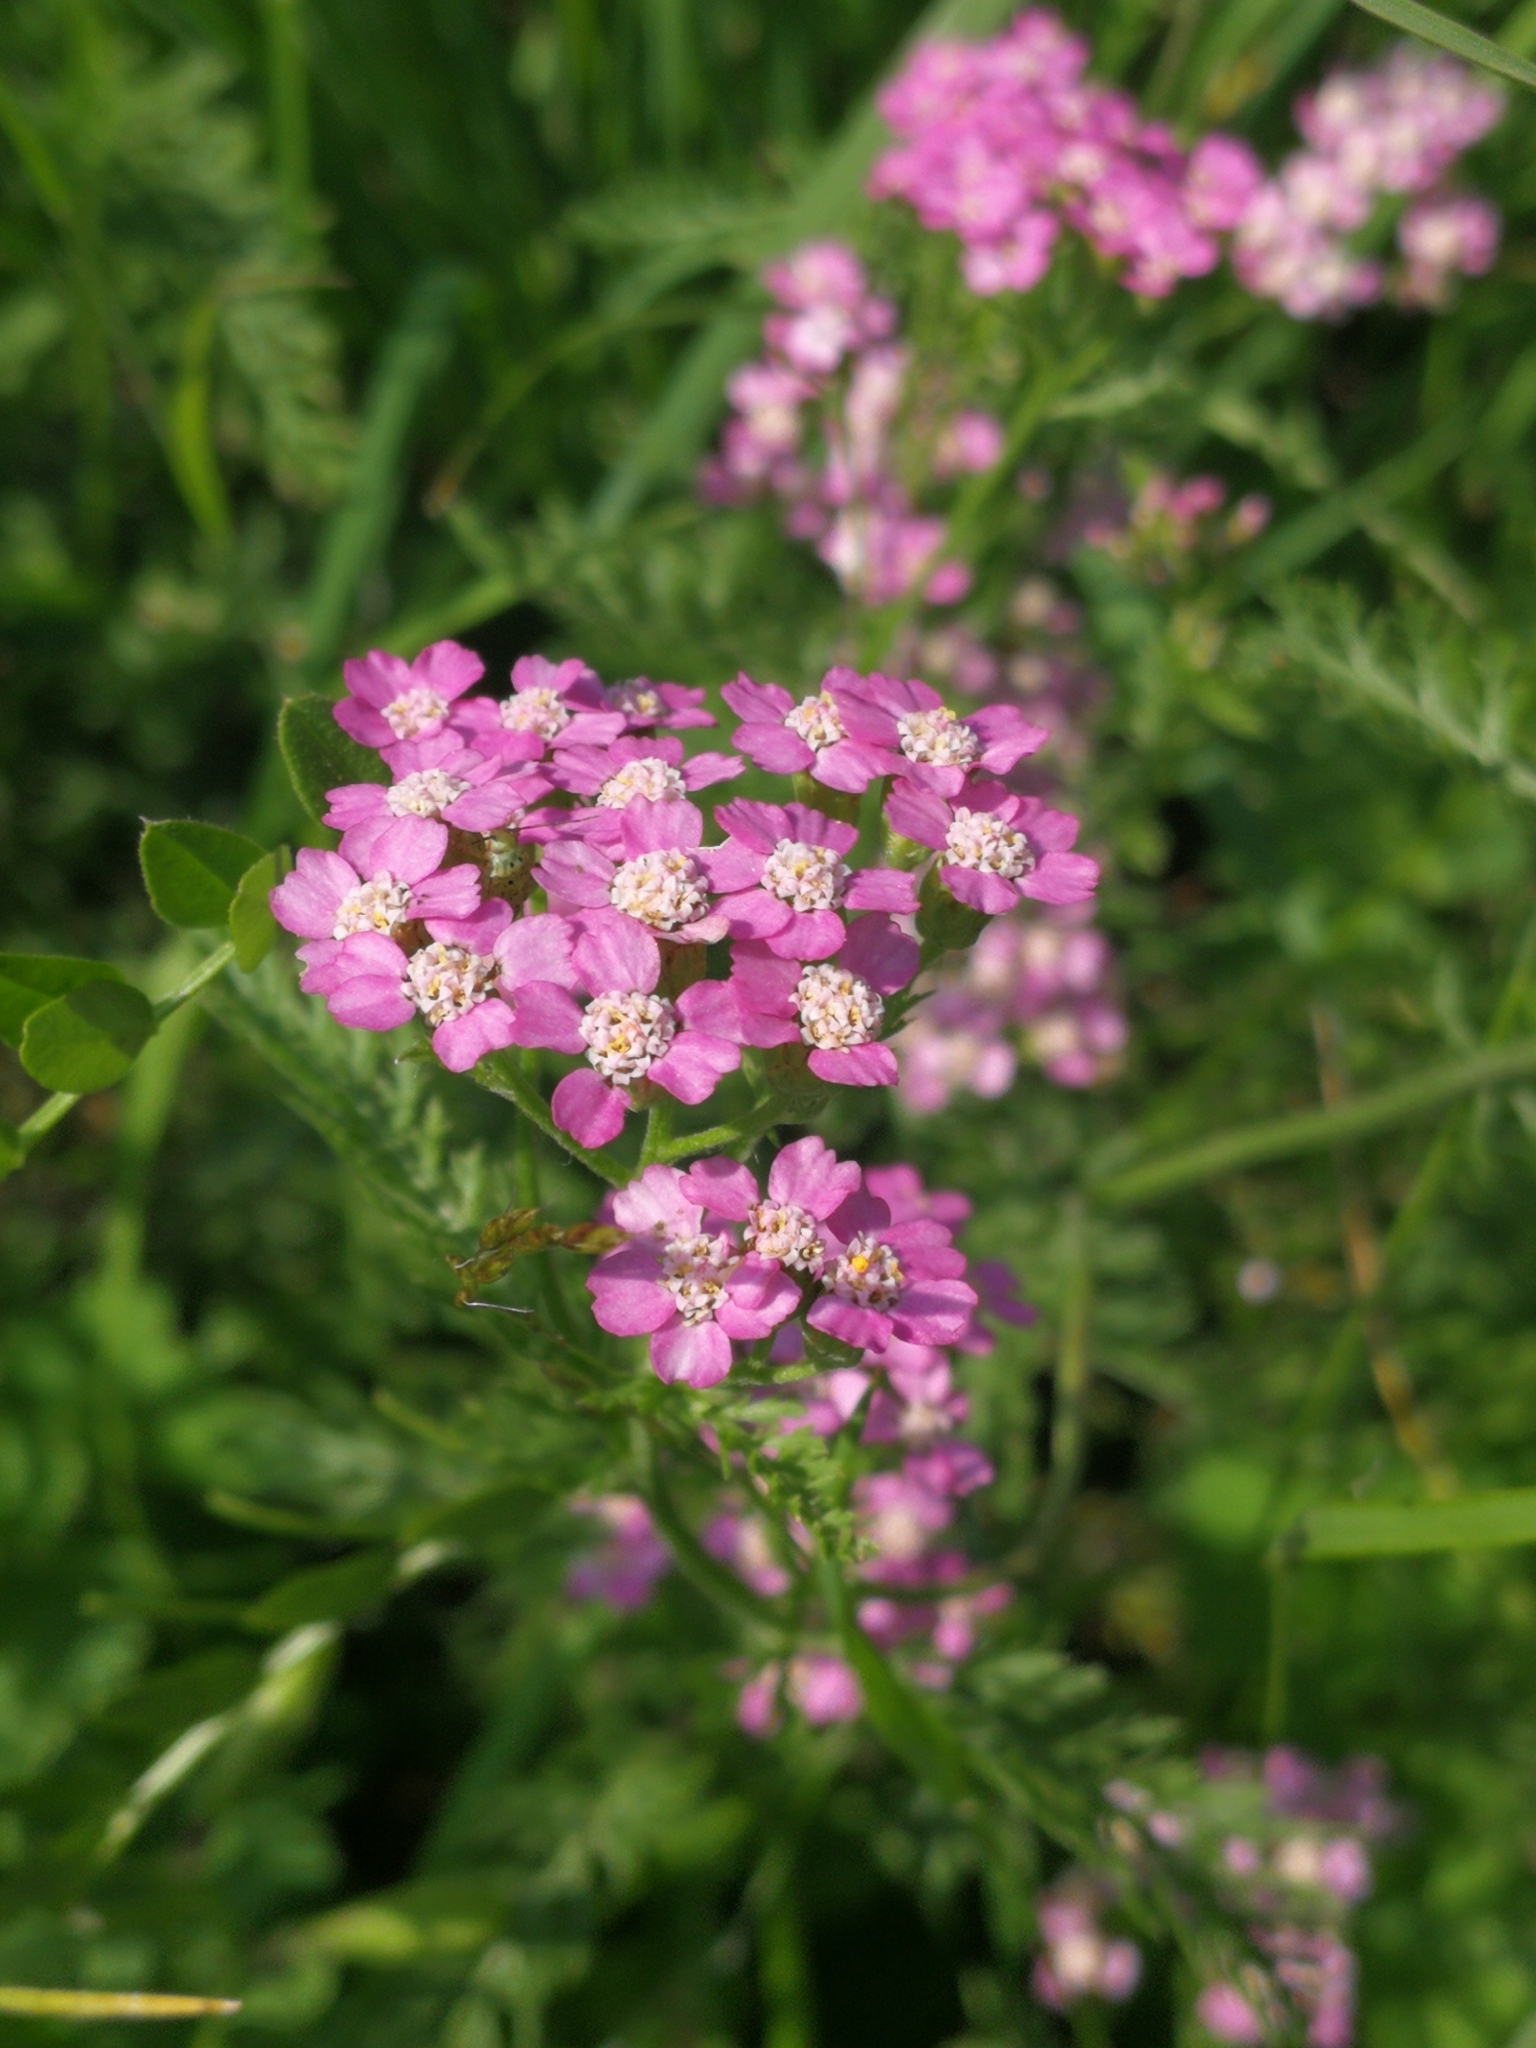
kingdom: Plantae
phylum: Tracheophyta
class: Magnoliopsida
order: Asterales
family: Asteraceae
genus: Achillea
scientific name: Achillea millefolium
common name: Yarrow
